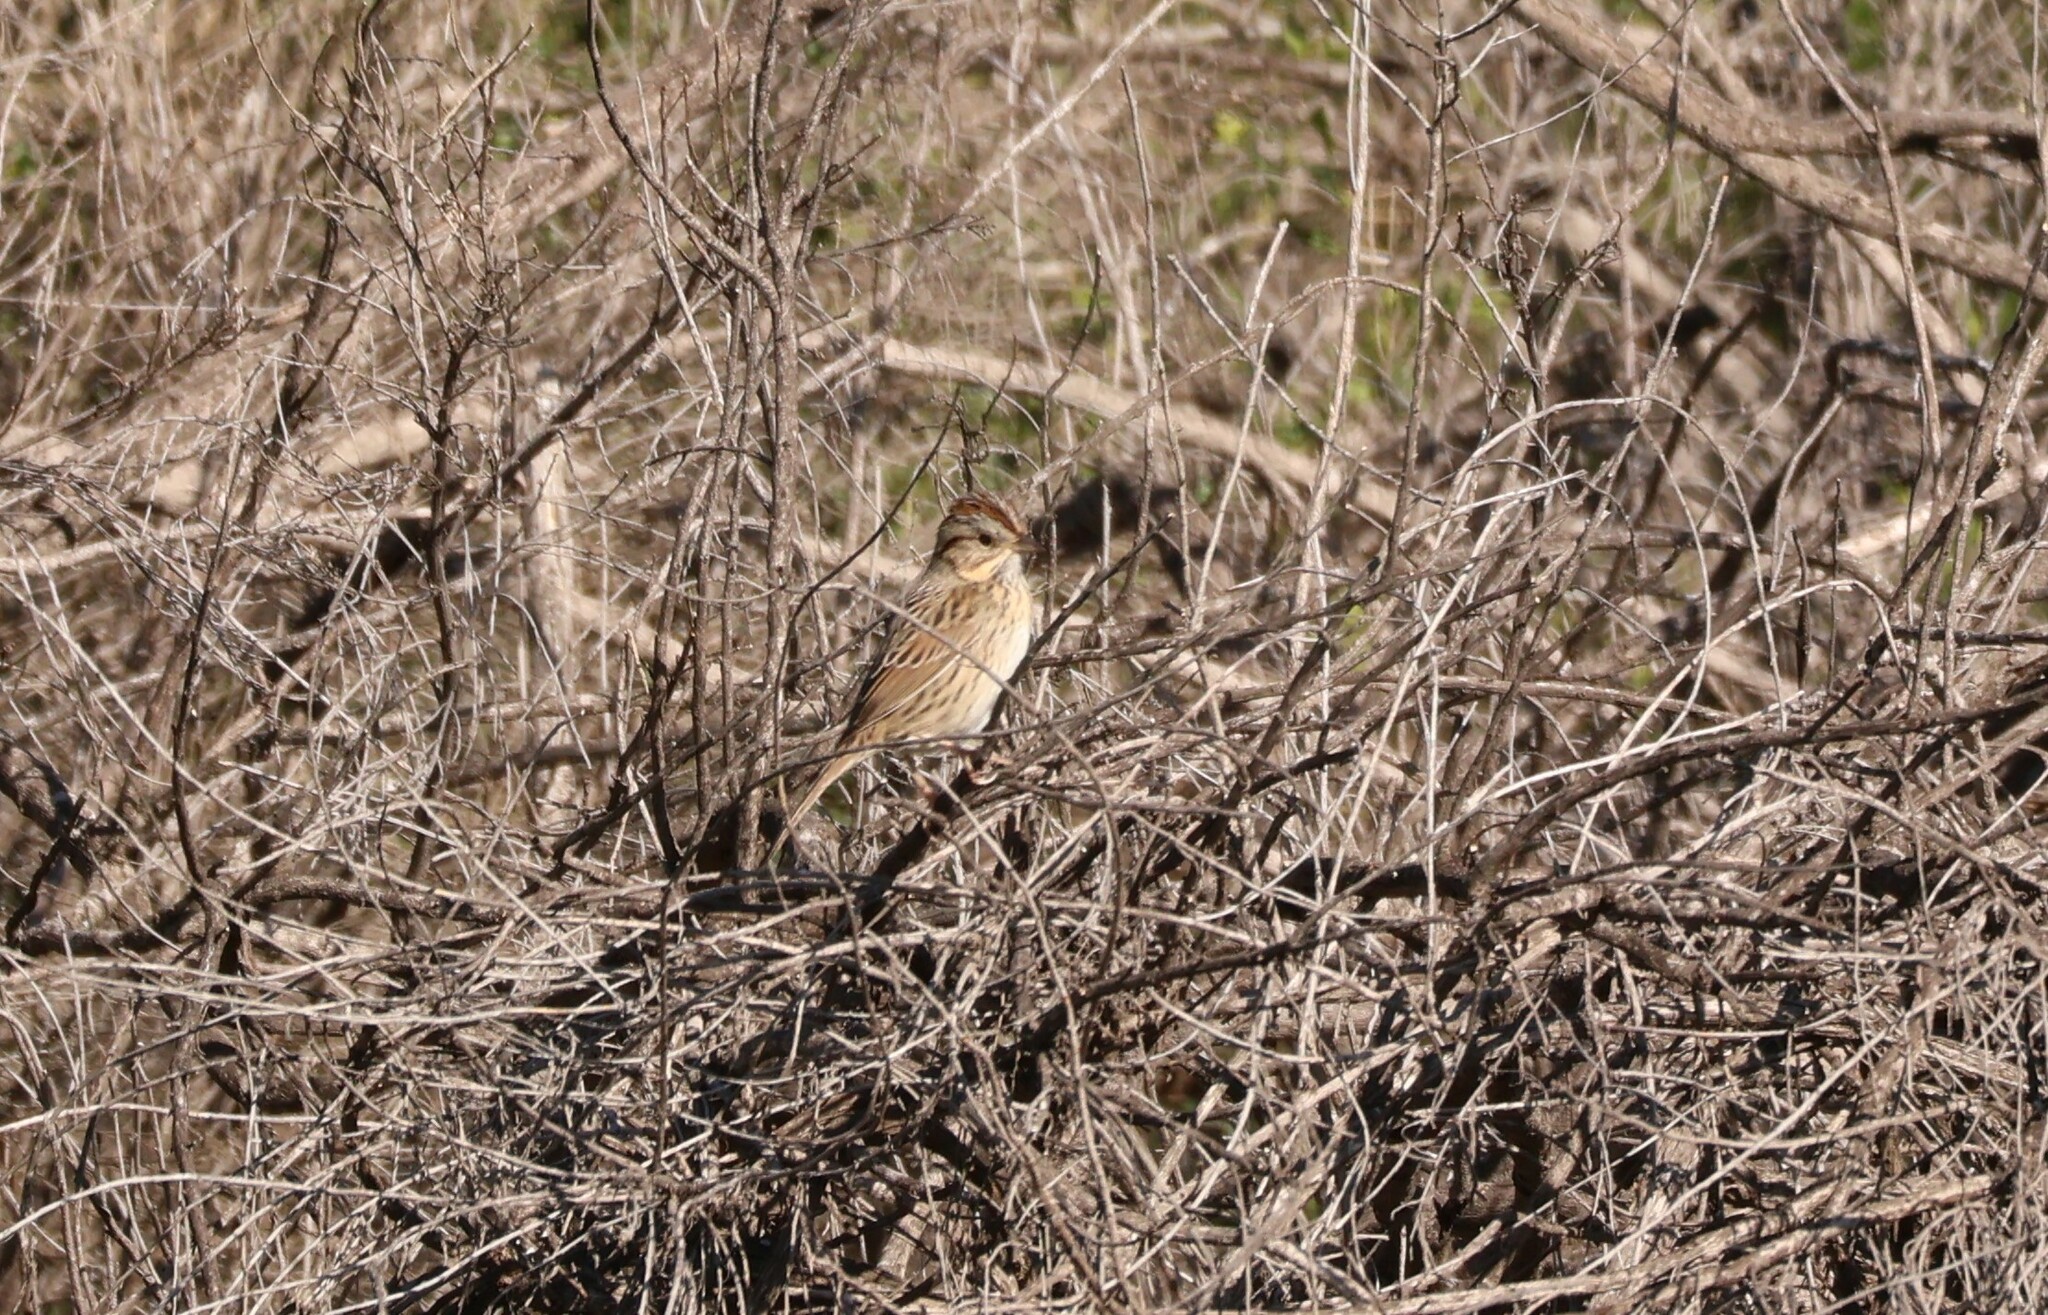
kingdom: Animalia
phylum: Chordata
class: Aves
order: Passeriformes
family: Passerellidae
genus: Melospiza
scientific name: Melospiza lincolnii
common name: Lincoln's sparrow
